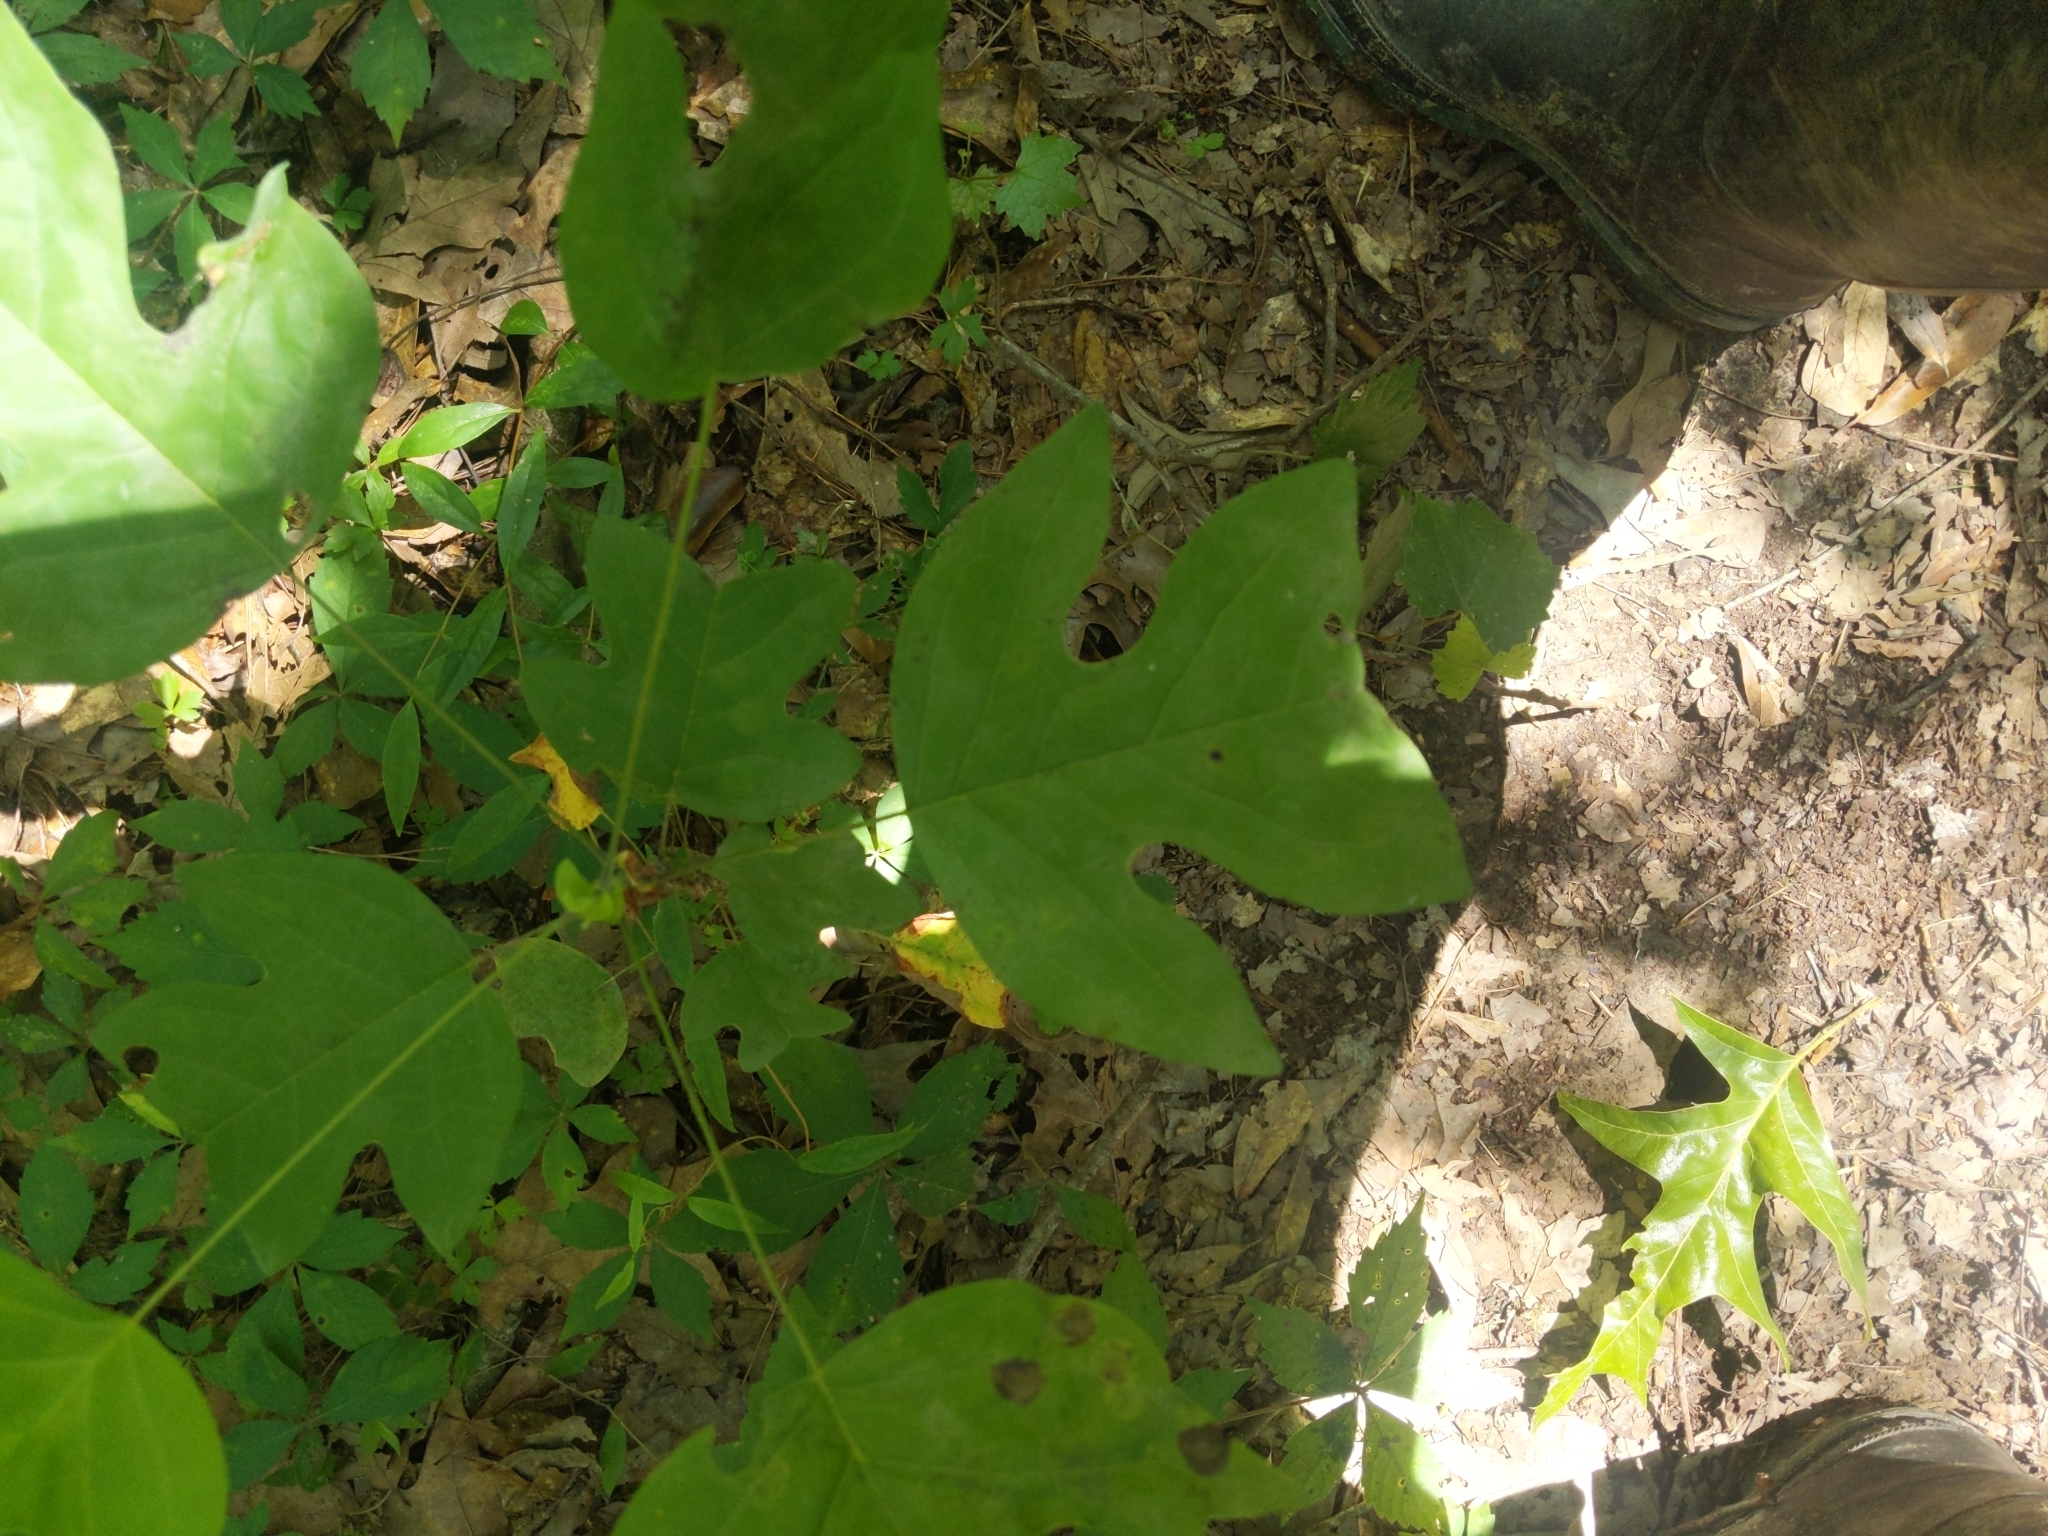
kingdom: Plantae
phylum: Tracheophyta
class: Magnoliopsida
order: Magnoliales
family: Magnoliaceae
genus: Liriodendron
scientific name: Liriodendron tulipifera
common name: Tulip tree
